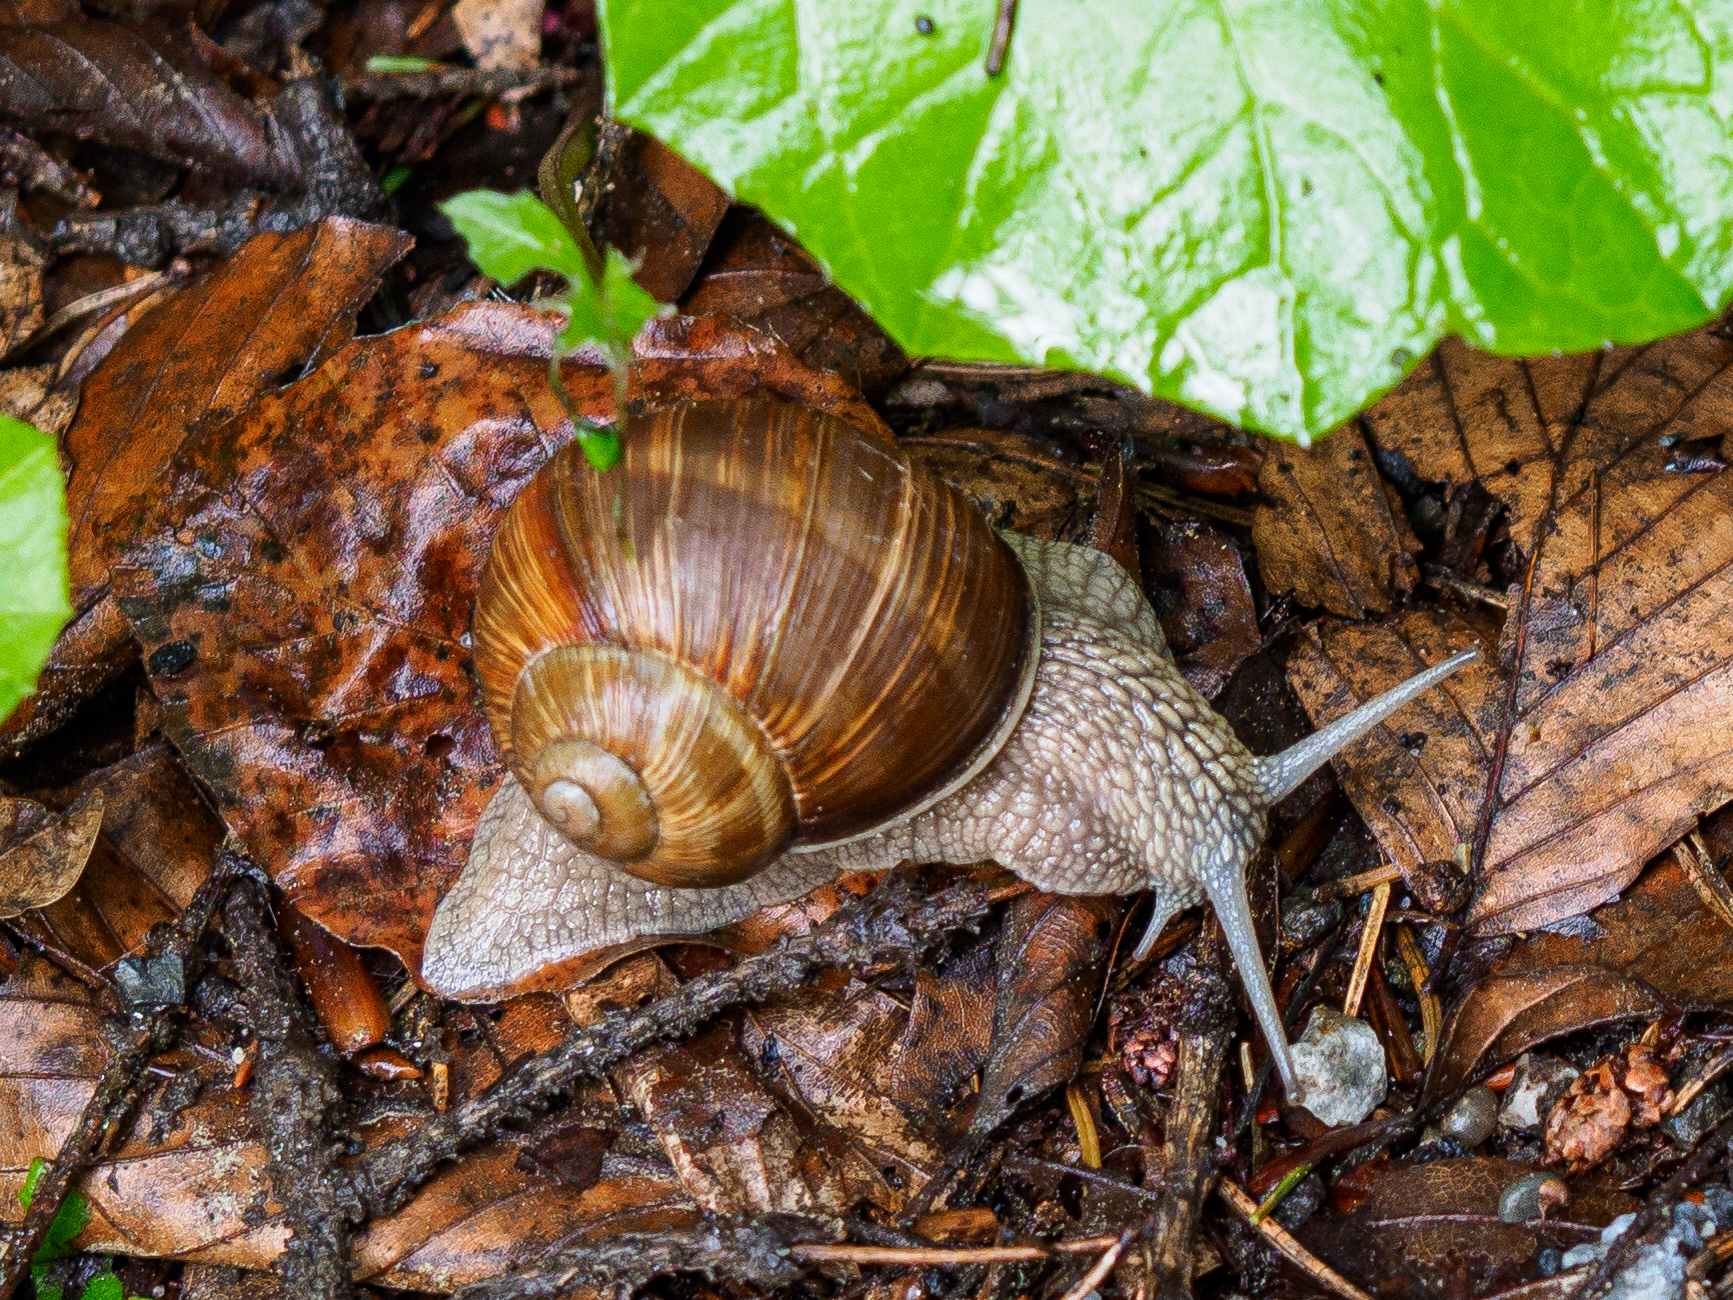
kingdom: Animalia
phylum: Mollusca
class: Gastropoda
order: Stylommatophora
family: Helicidae
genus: Helix
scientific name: Helix pomatia
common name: Roman snail
